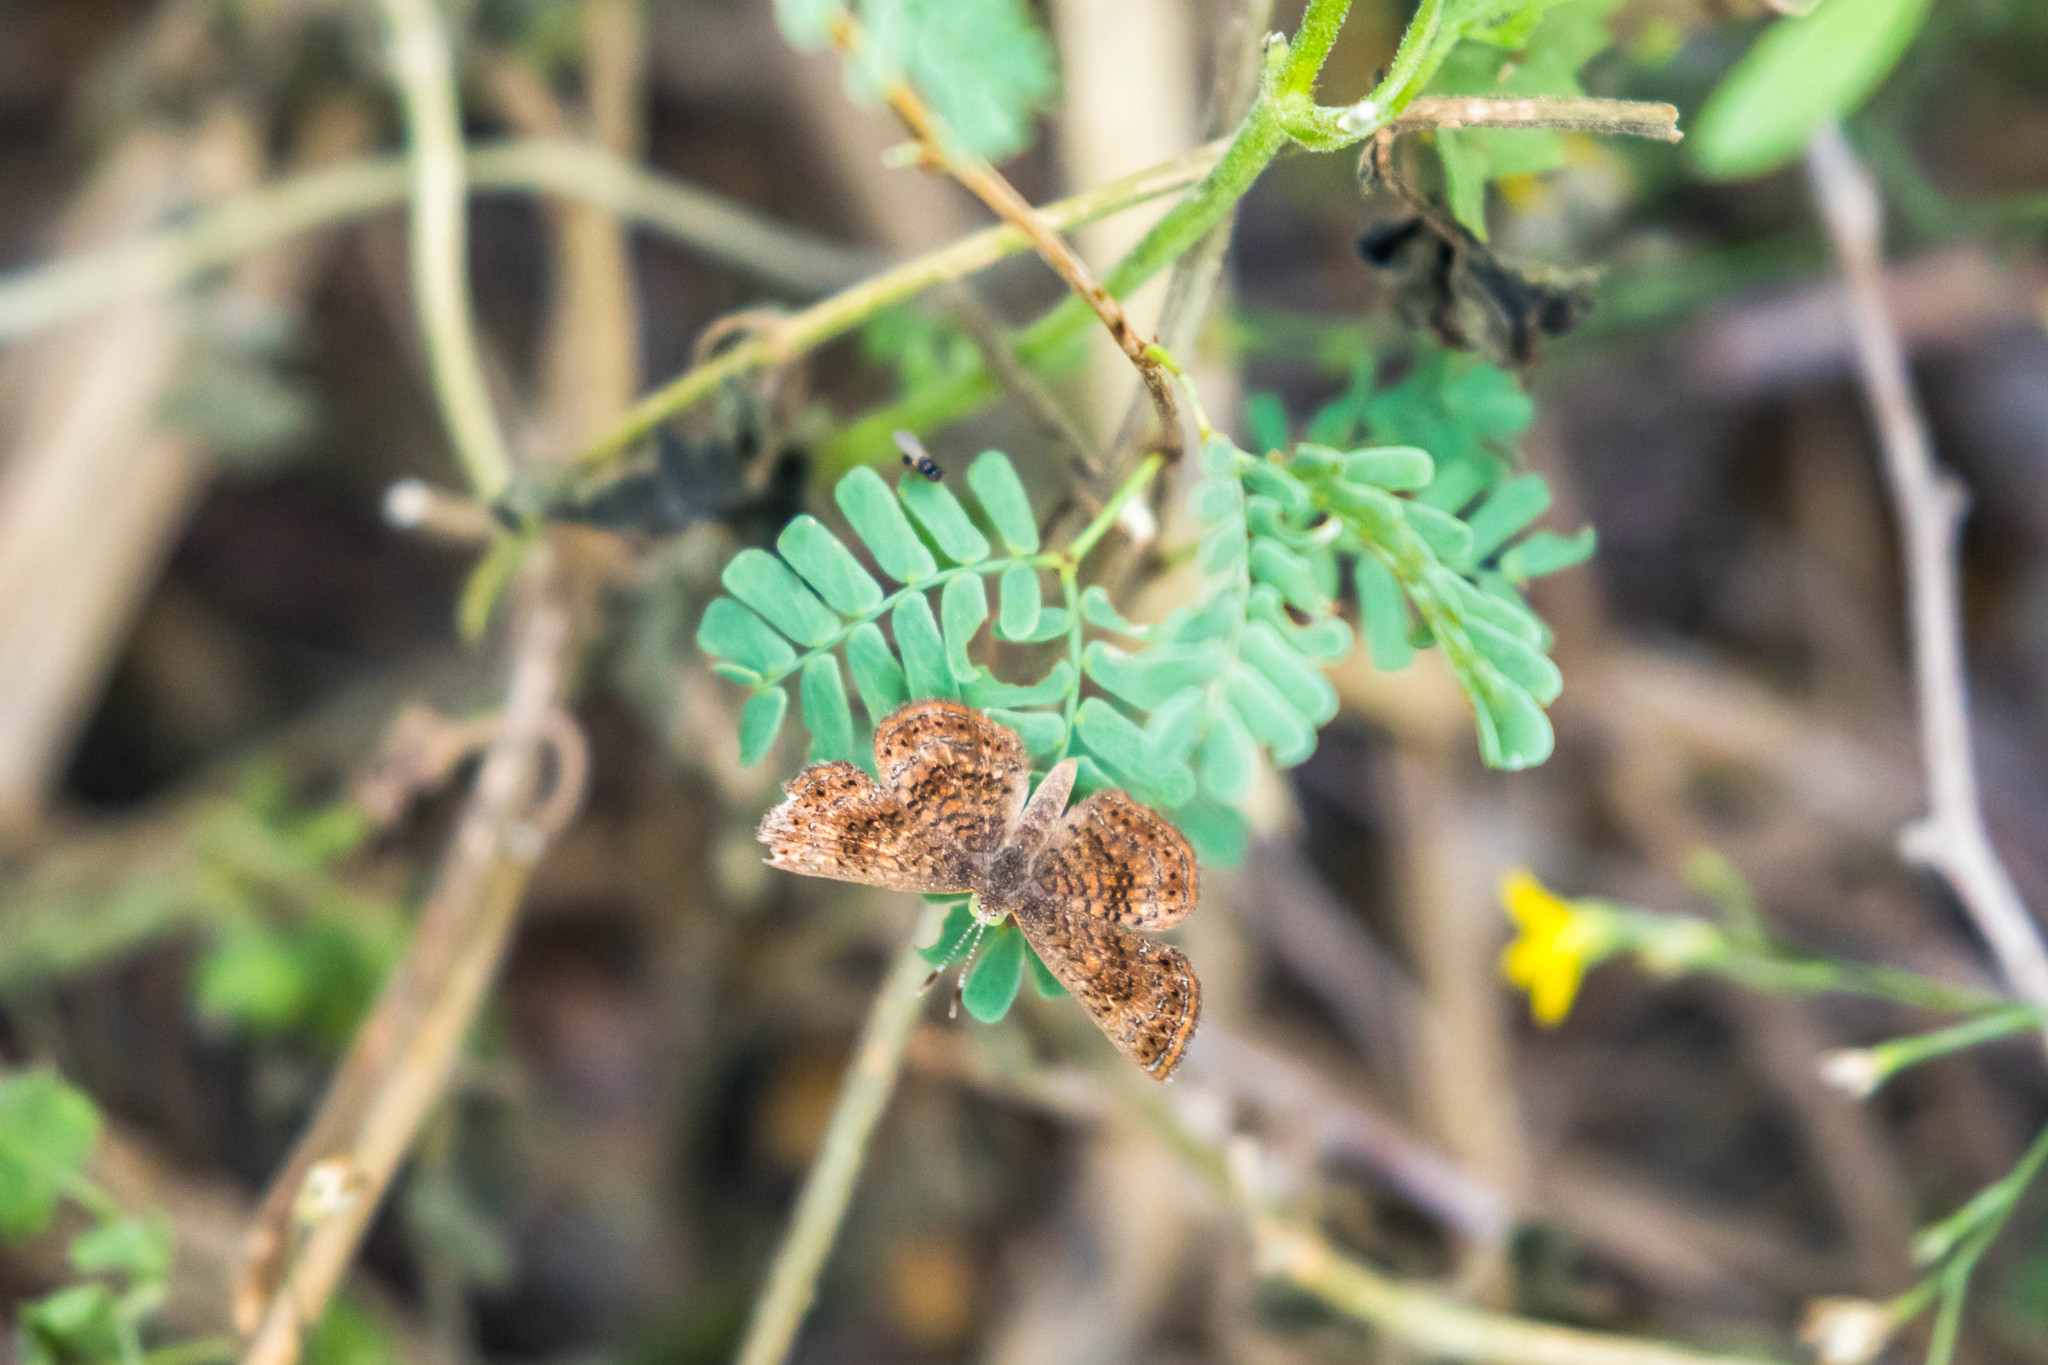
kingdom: Animalia
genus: Calephelis
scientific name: Calephelis perditalis
